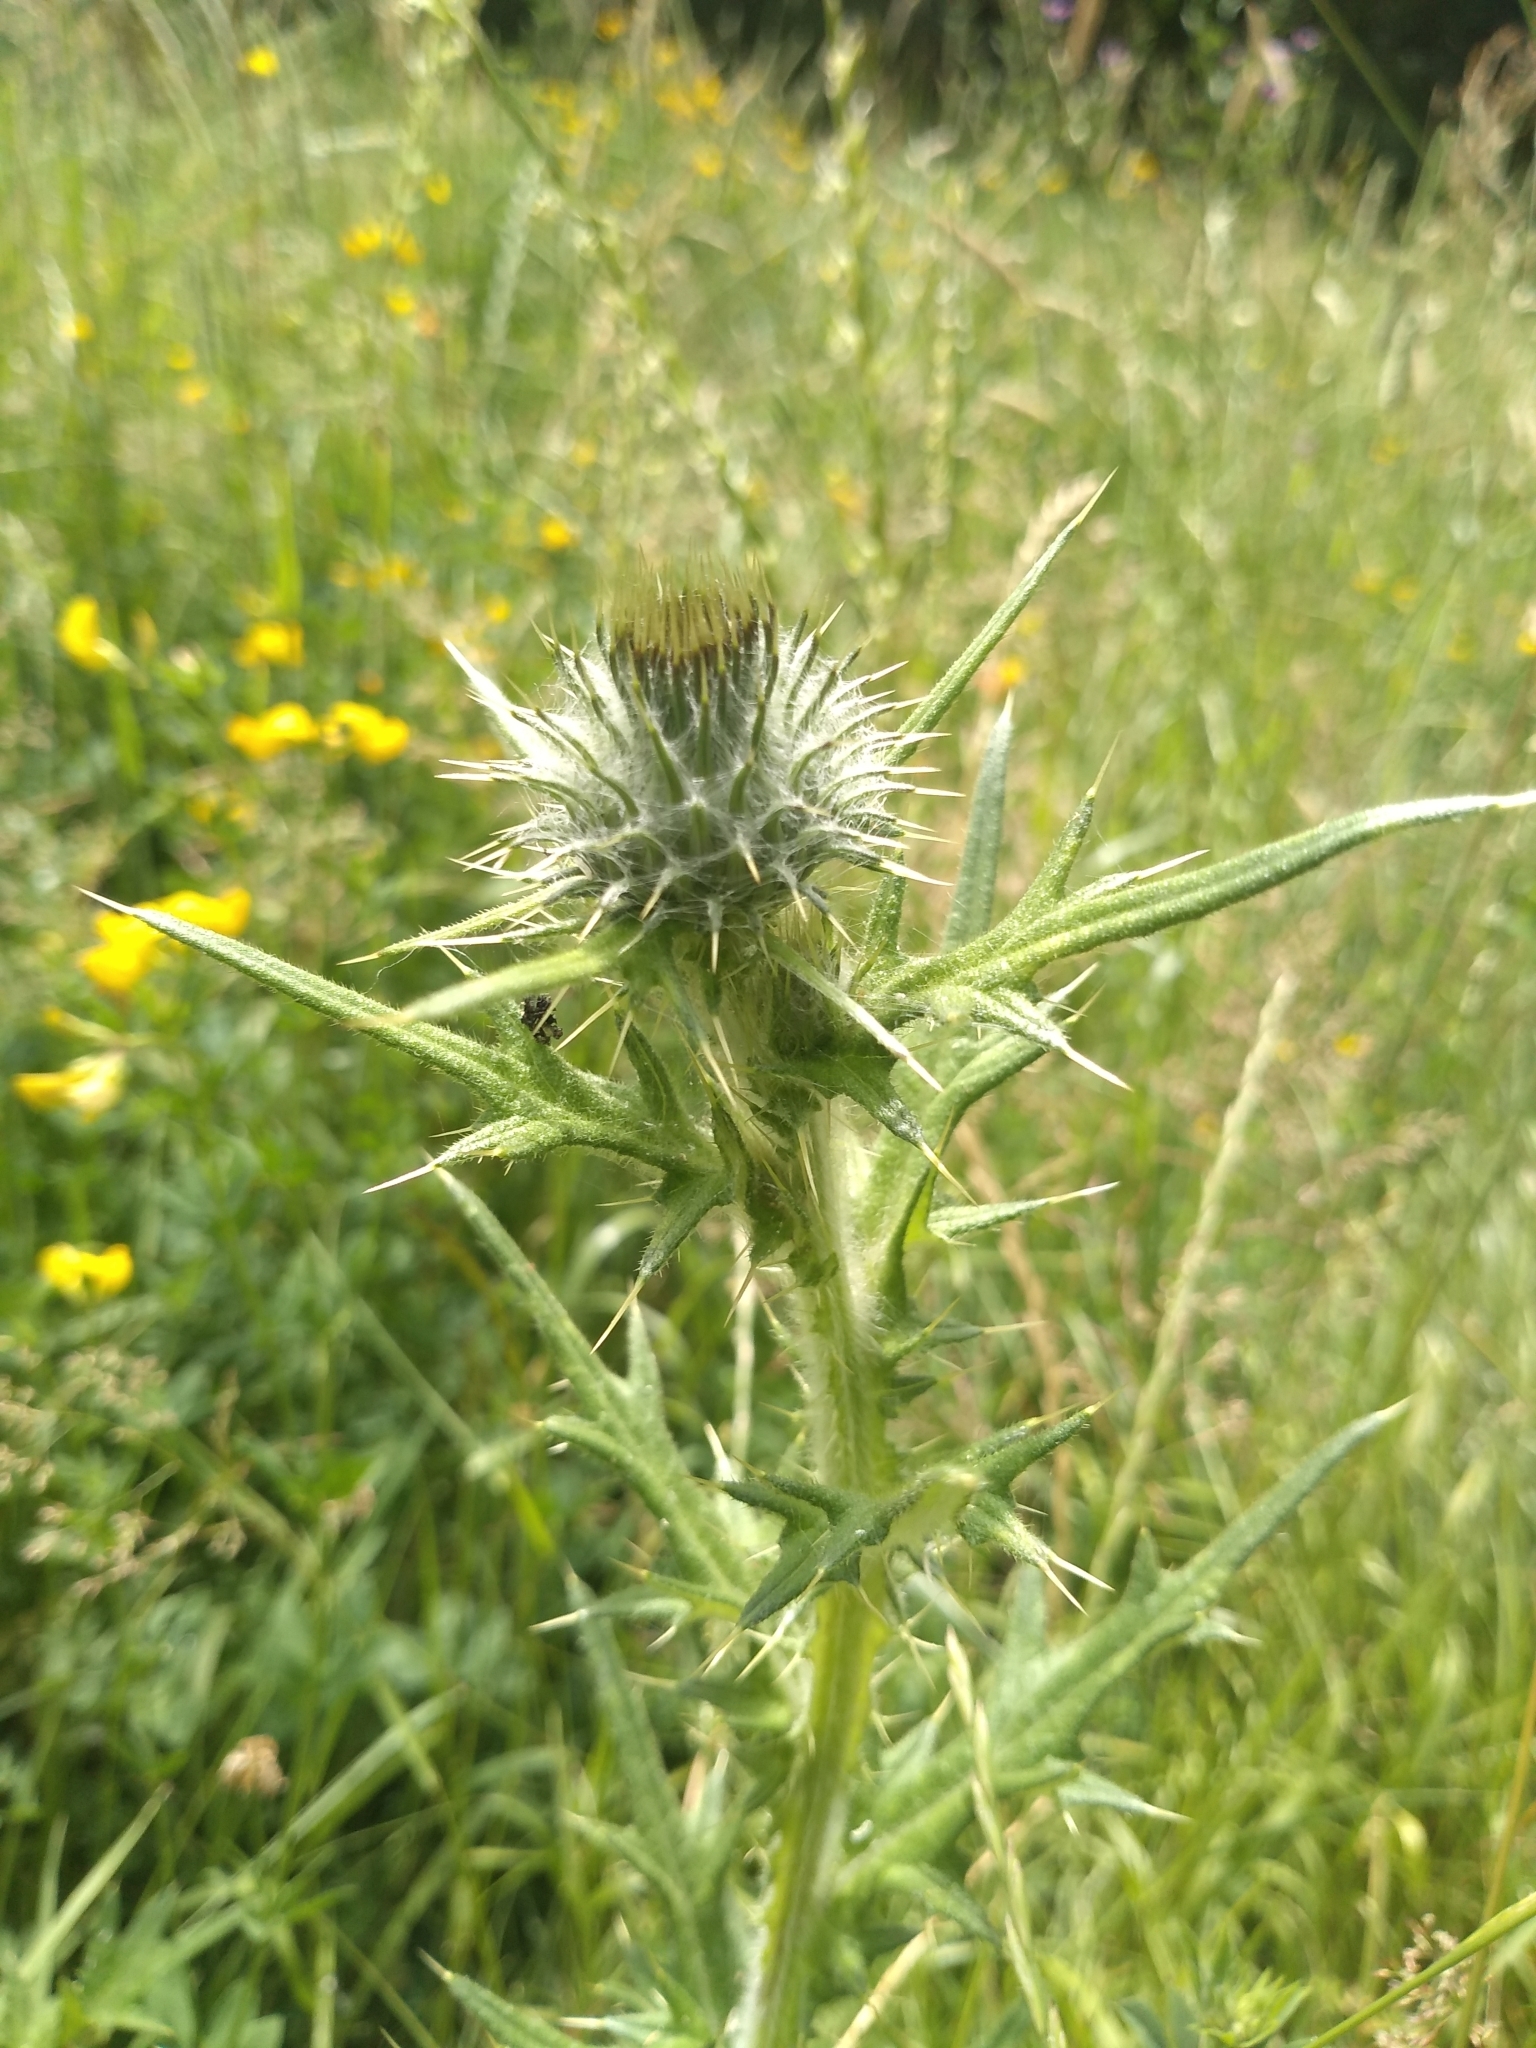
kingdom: Plantae
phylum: Tracheophyta
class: Magnoliopsida
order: Asterales
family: Asteraceae
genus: Cirsium
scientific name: Cirsium vulgare
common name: Bull thistle
